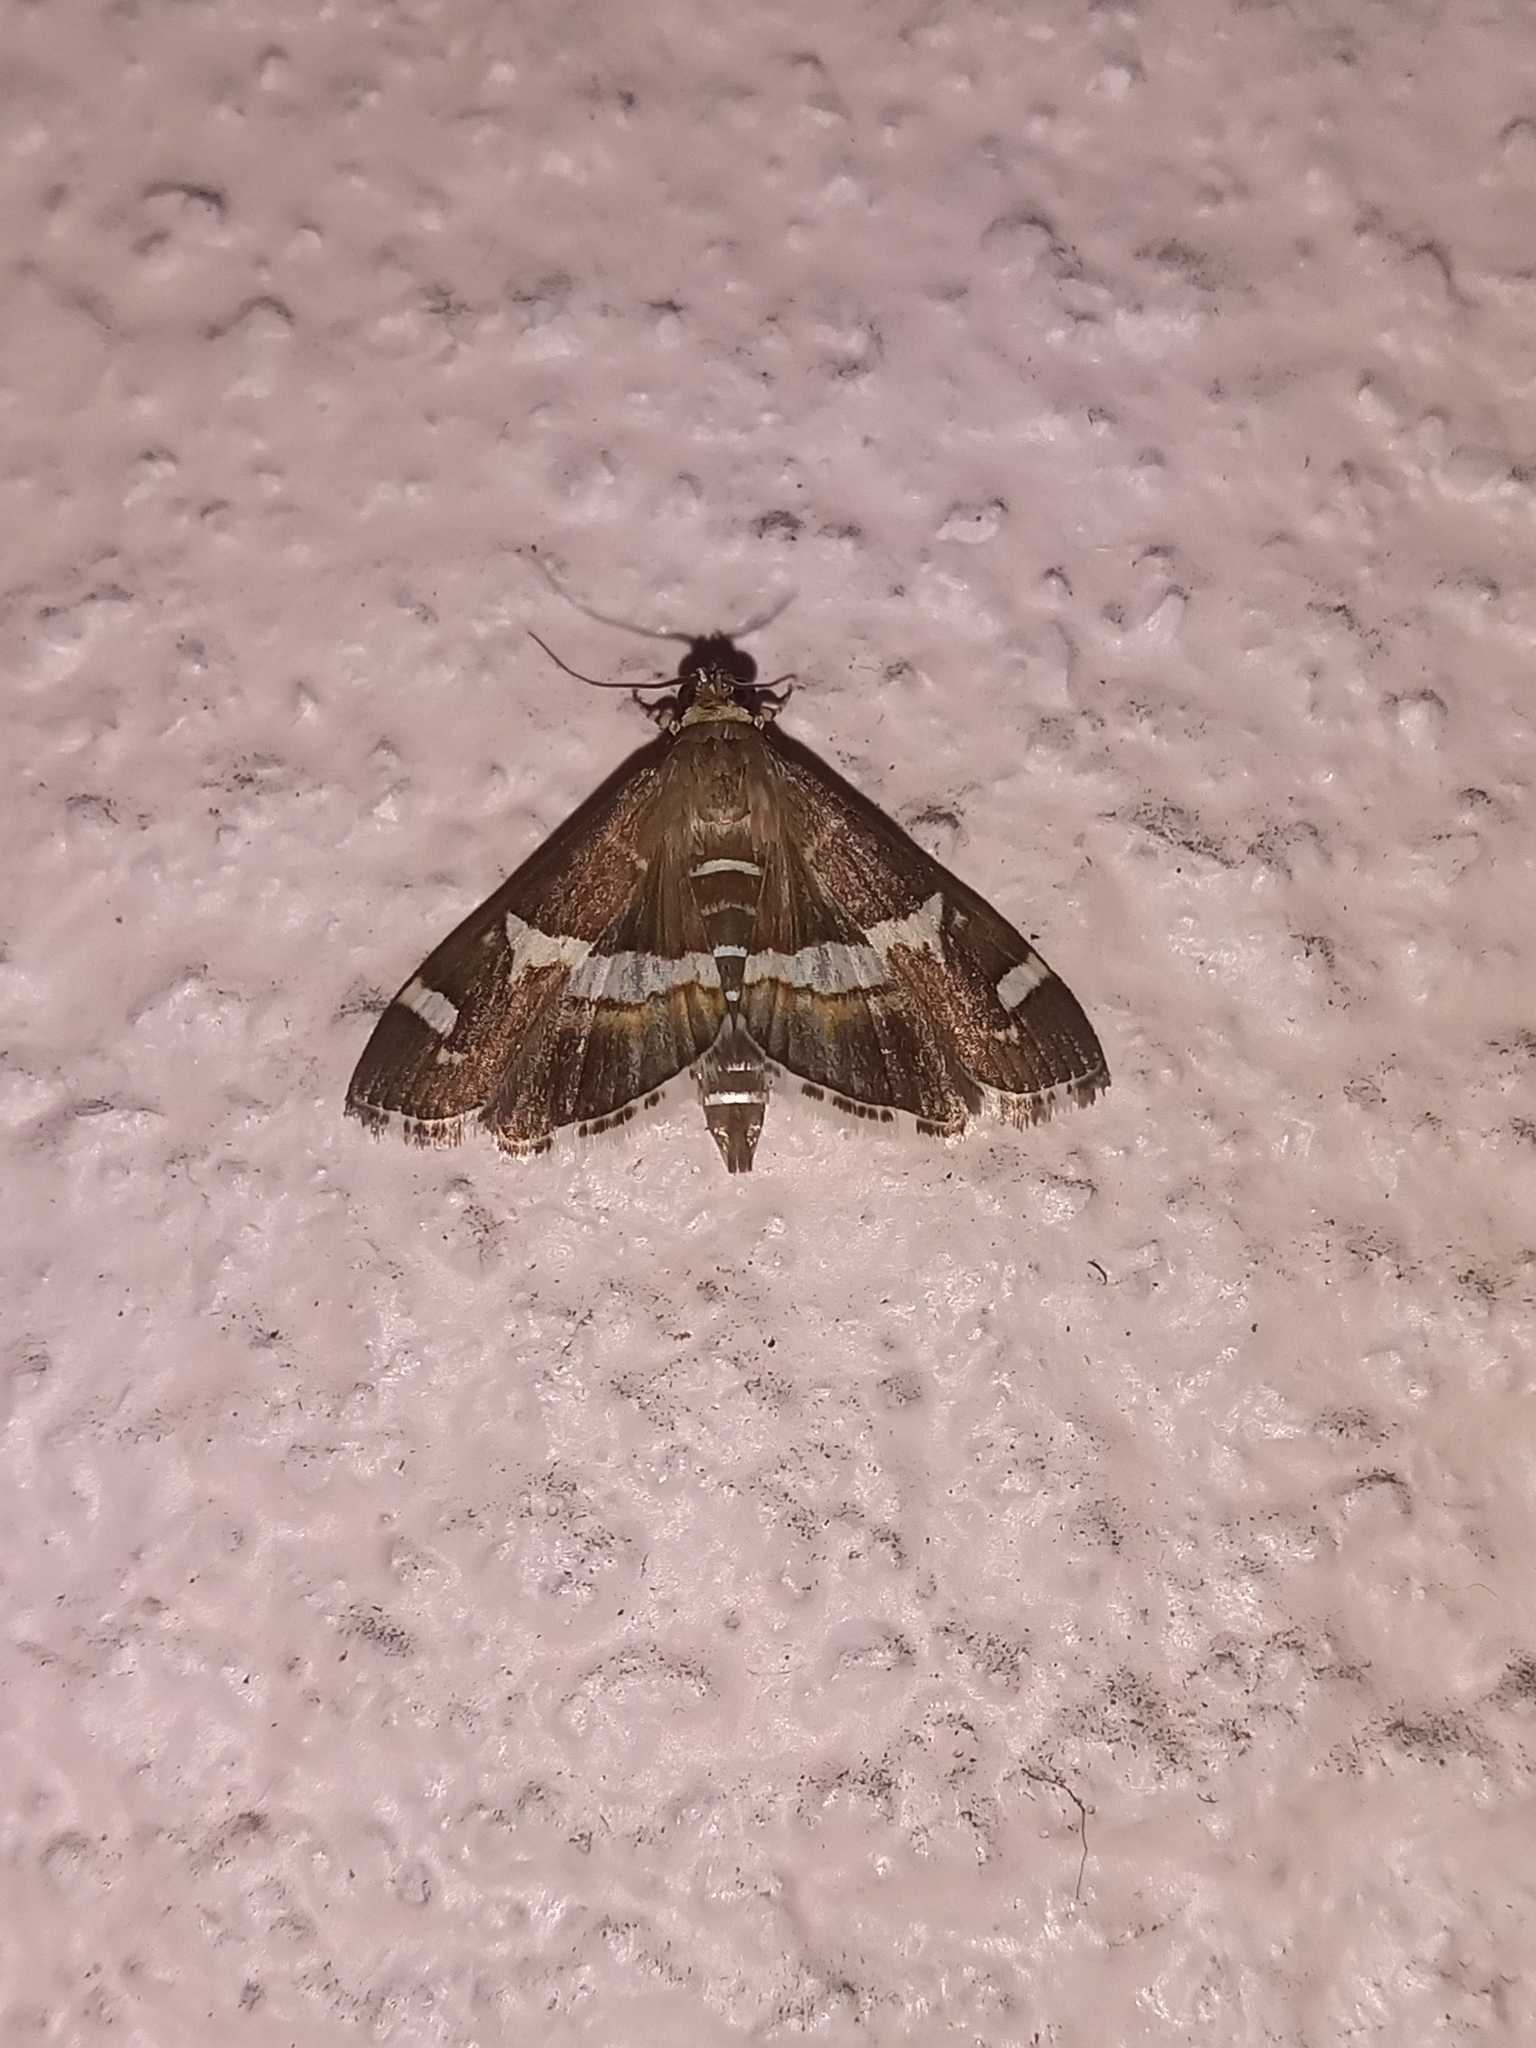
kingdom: Animalia
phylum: Arthropoda
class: Insecta
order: Lepidoptera
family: Crambidae
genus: Spoladea
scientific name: Spoladea recurvalis
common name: Beet webworm moth
